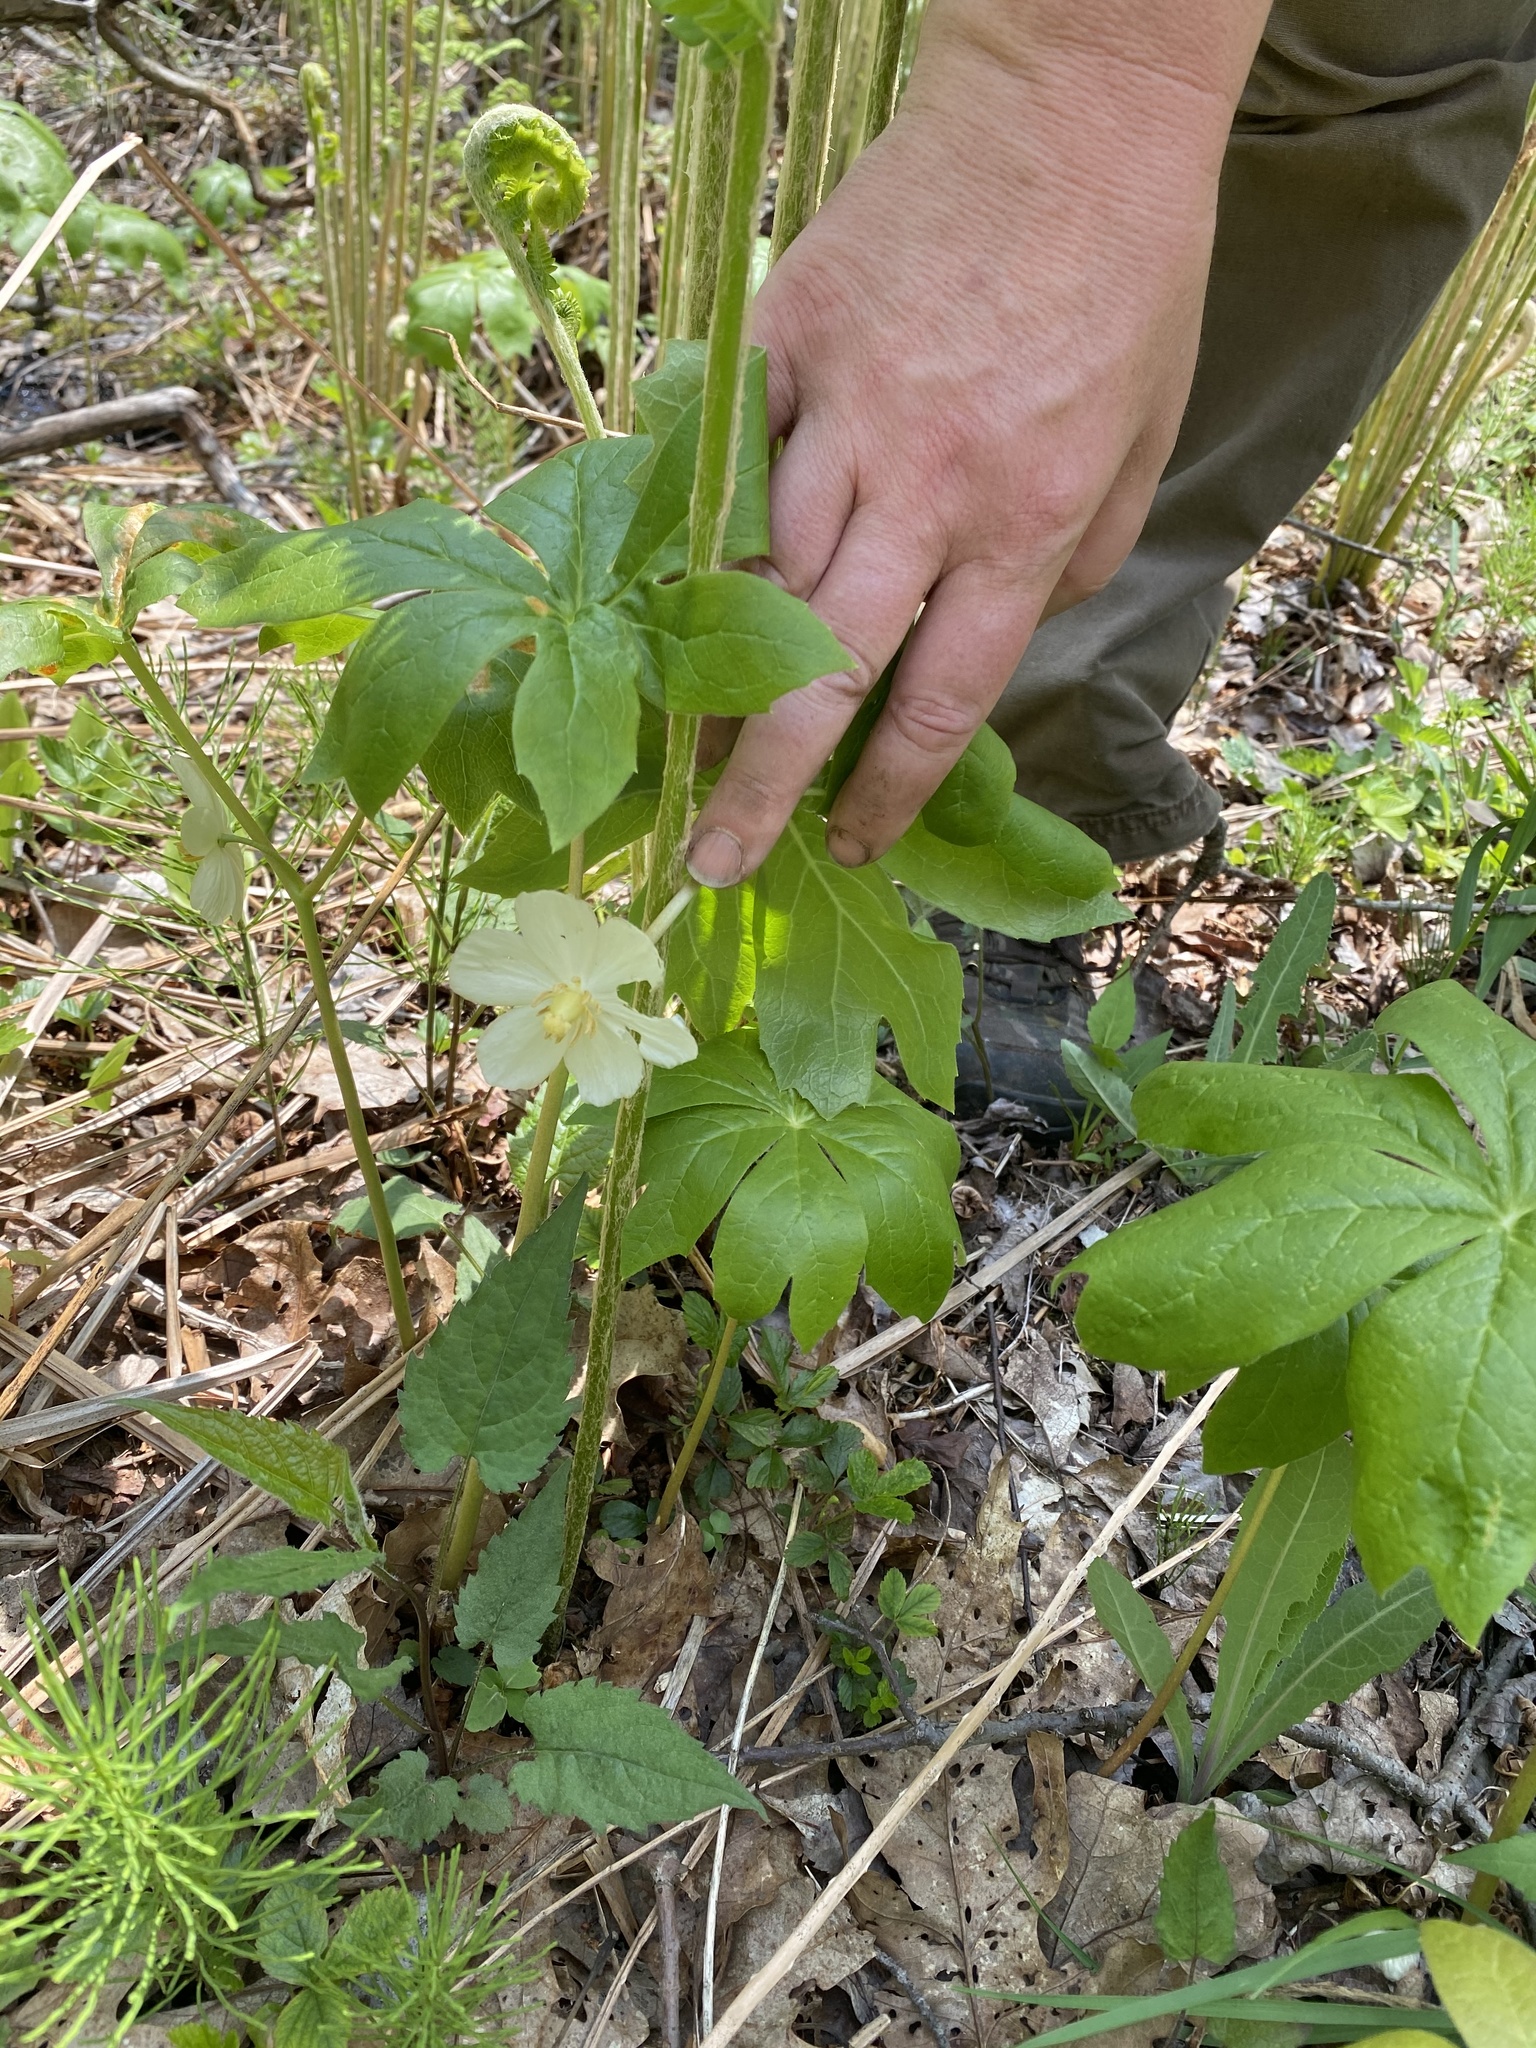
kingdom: Plantae
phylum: Tracheophyta
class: Magnoliopsida
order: Ranunculales
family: Berberidaceae
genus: Podophyllum
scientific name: Podophyllum peltatum
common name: Wild mandrake
